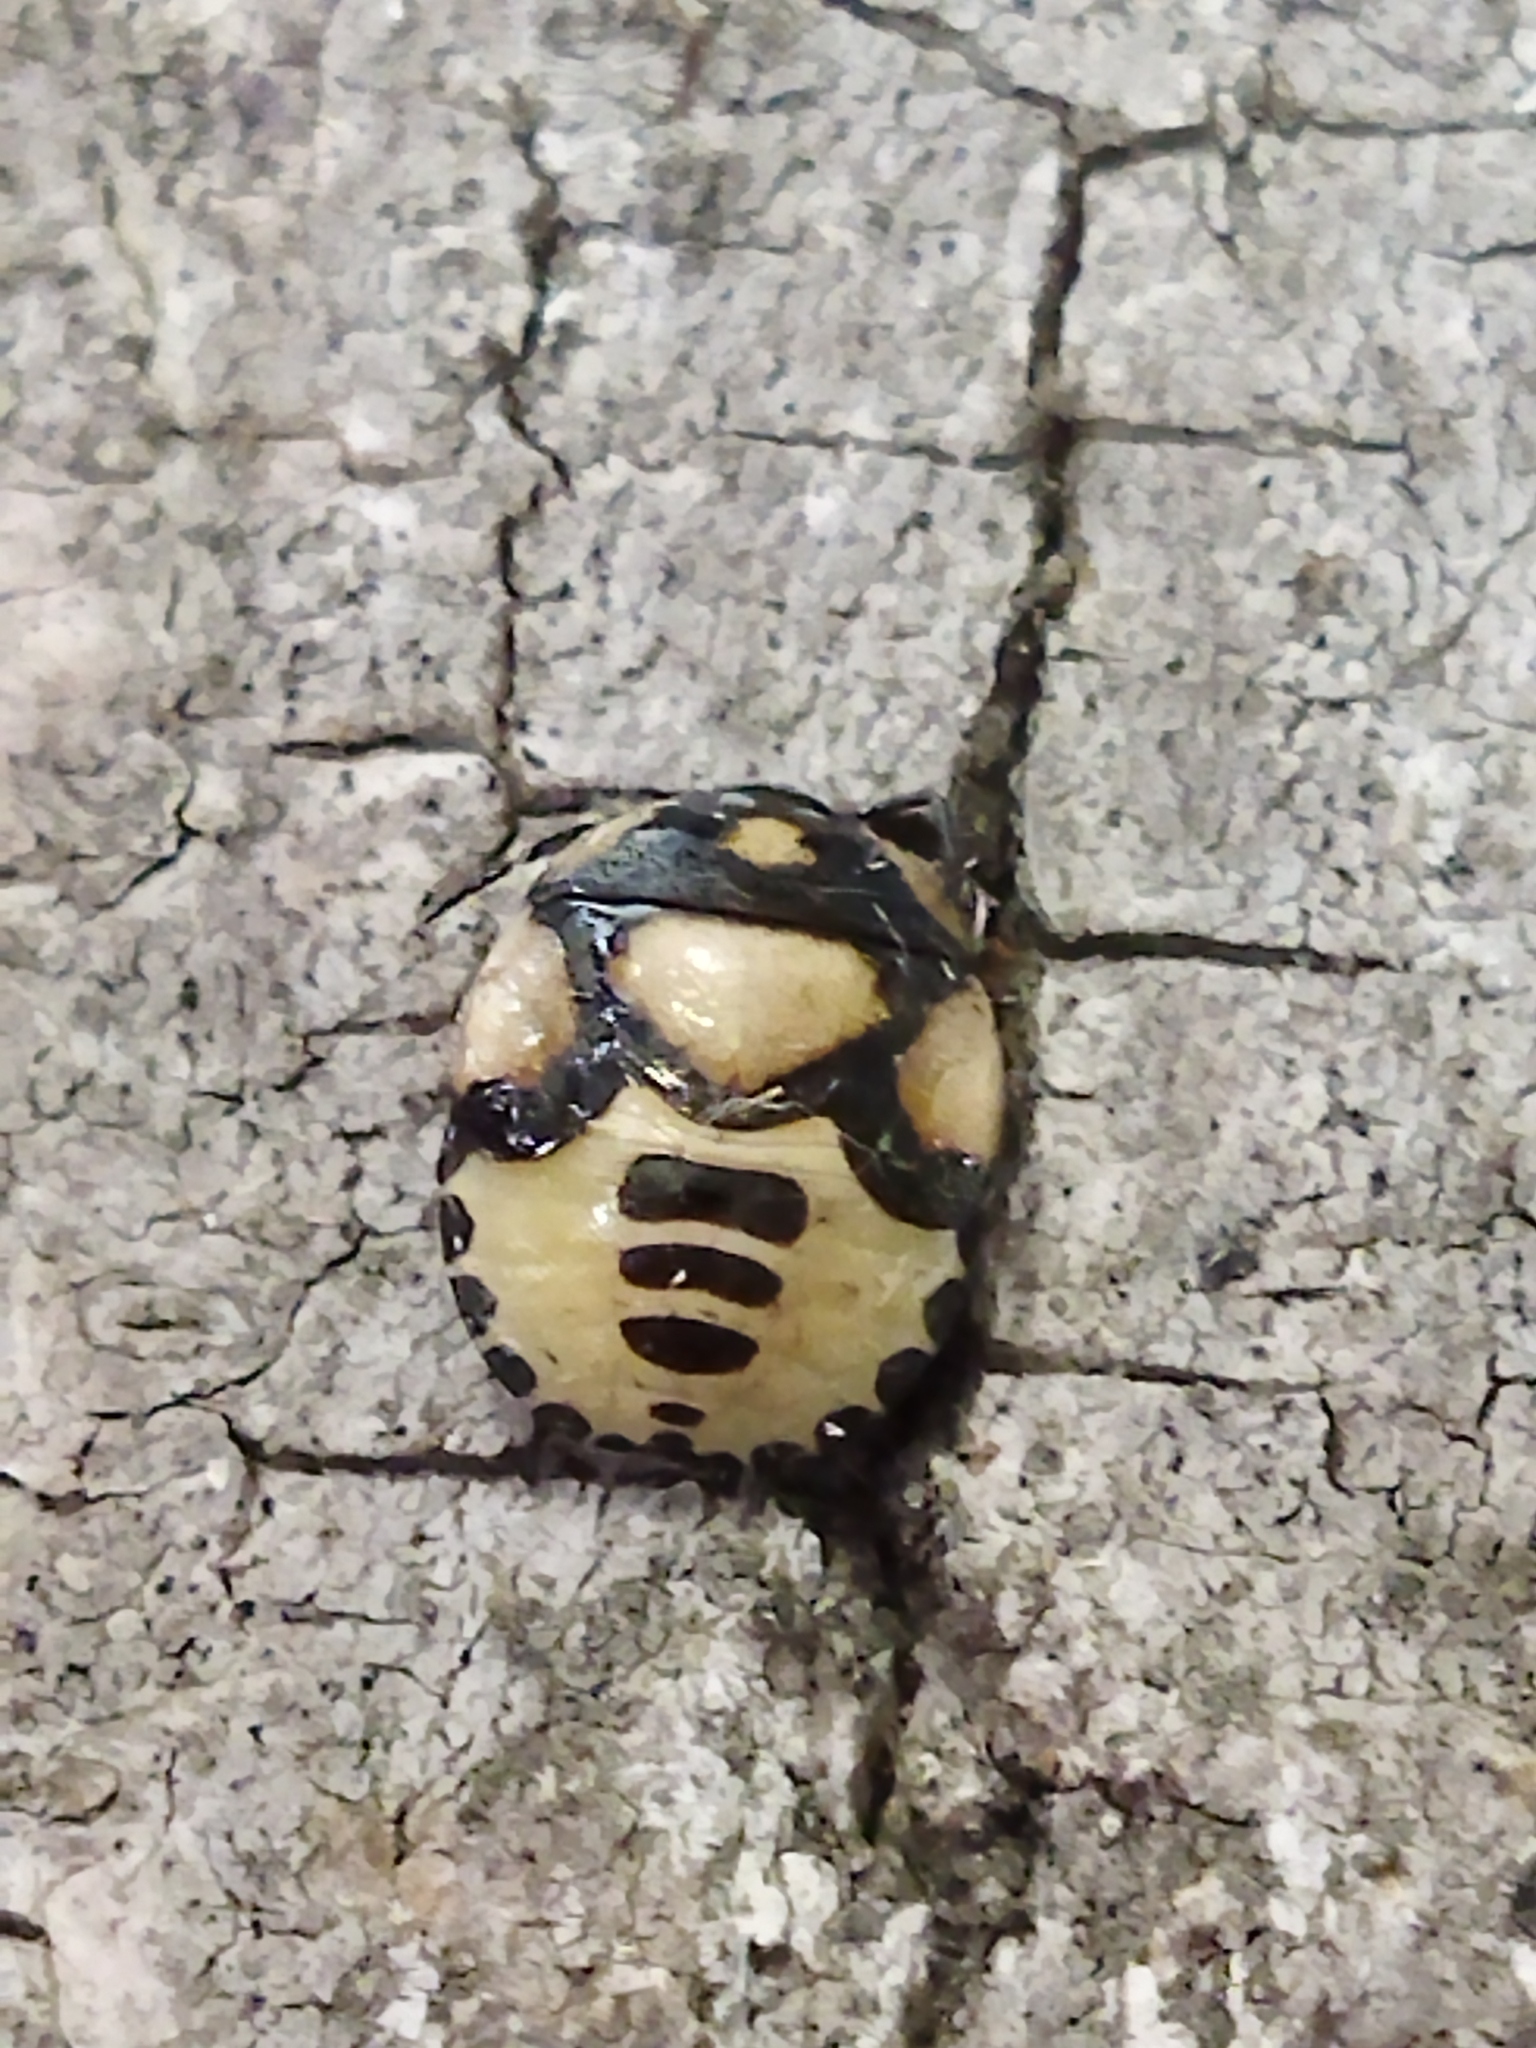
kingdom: Animalia
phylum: Arthropoda
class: Insecta
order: Hemiptera
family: Cydnidae
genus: Tritomegas
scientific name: Tritomegas bicolor
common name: Pied shieldbug
